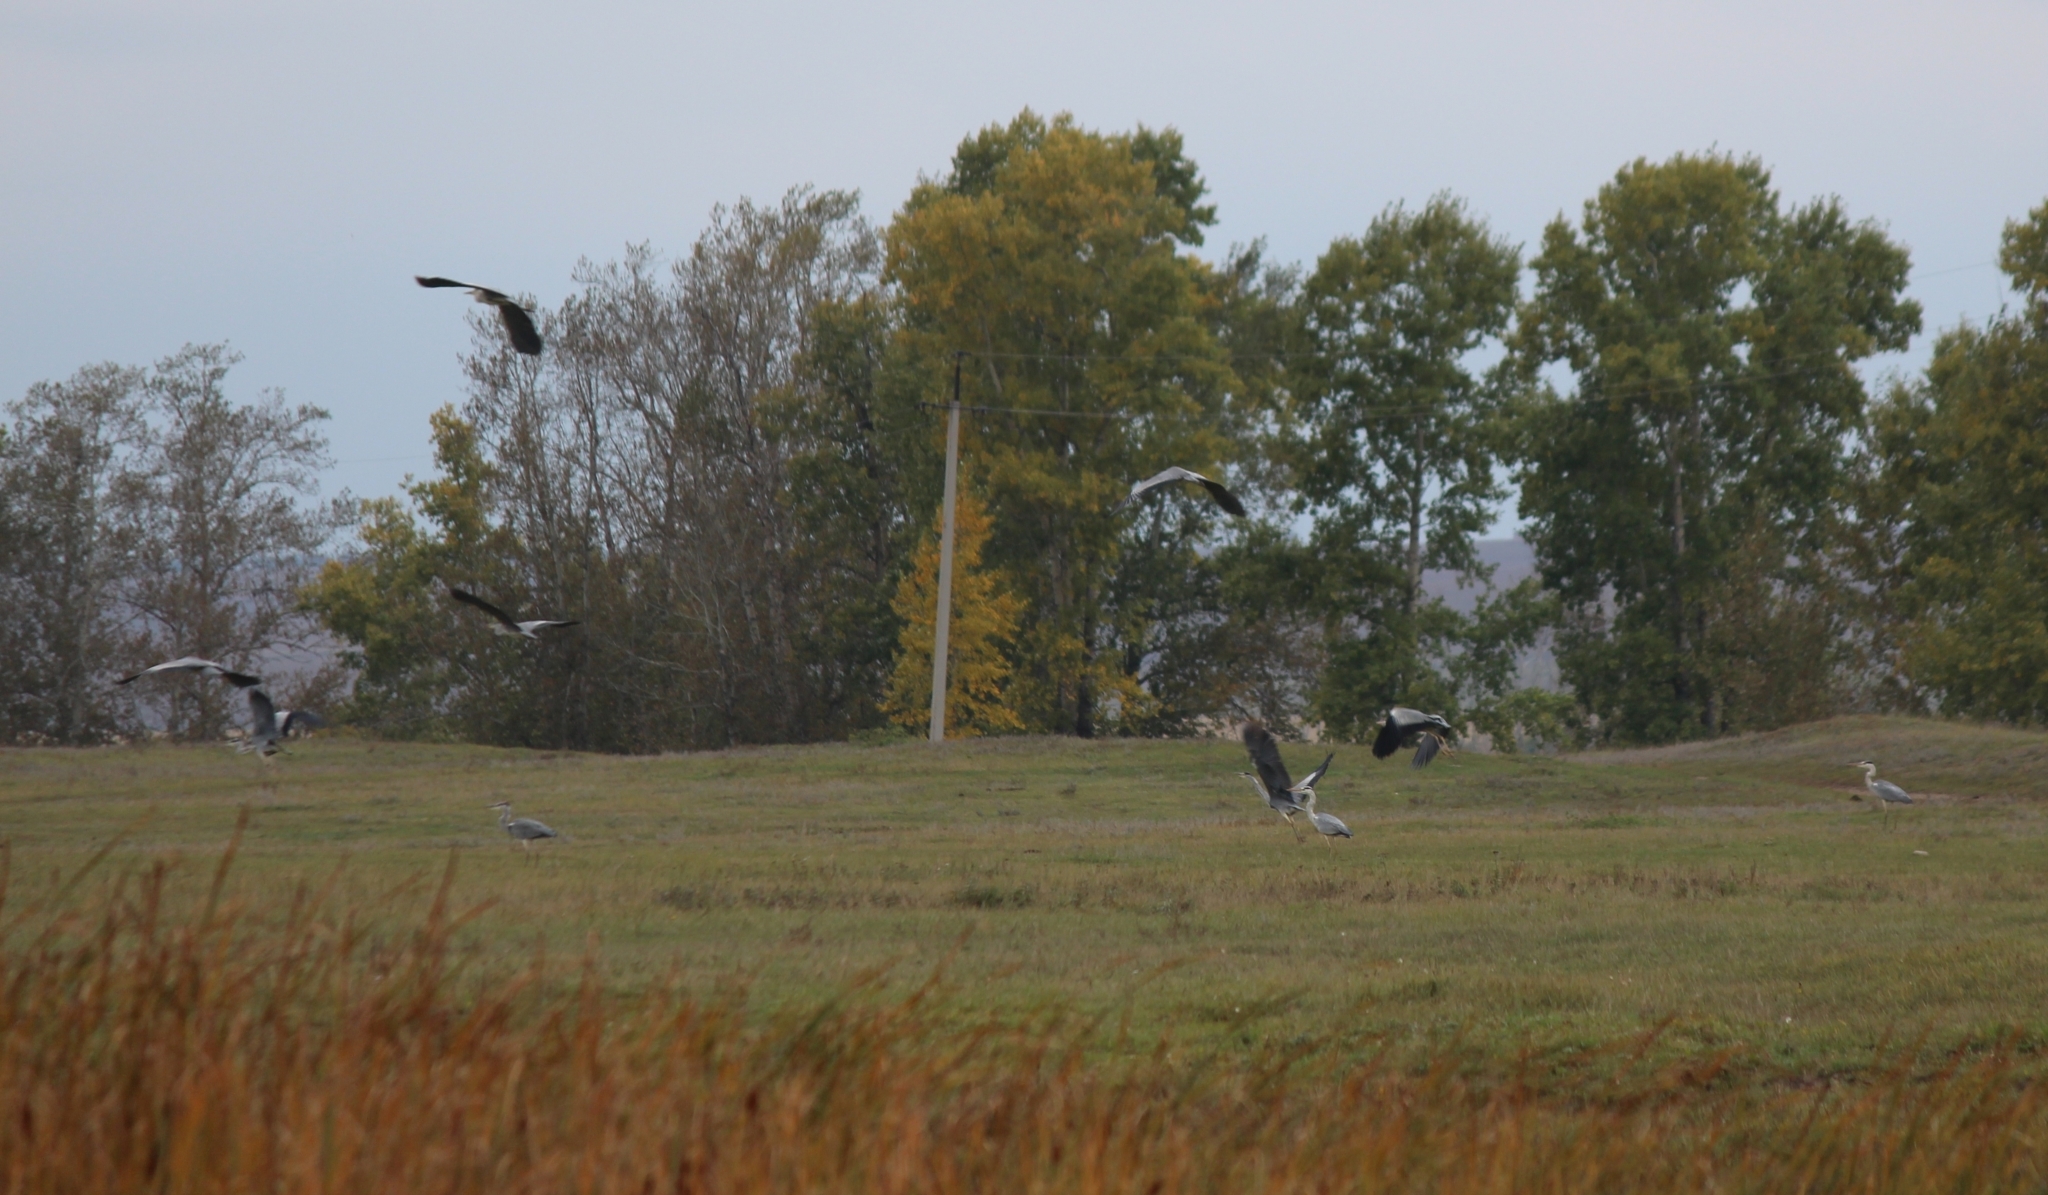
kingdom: Animalia
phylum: Chordata
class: Aves
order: Pelecaniformes
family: Ardeidae
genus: Ardea
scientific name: Ardea cinerea
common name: Grey heron
